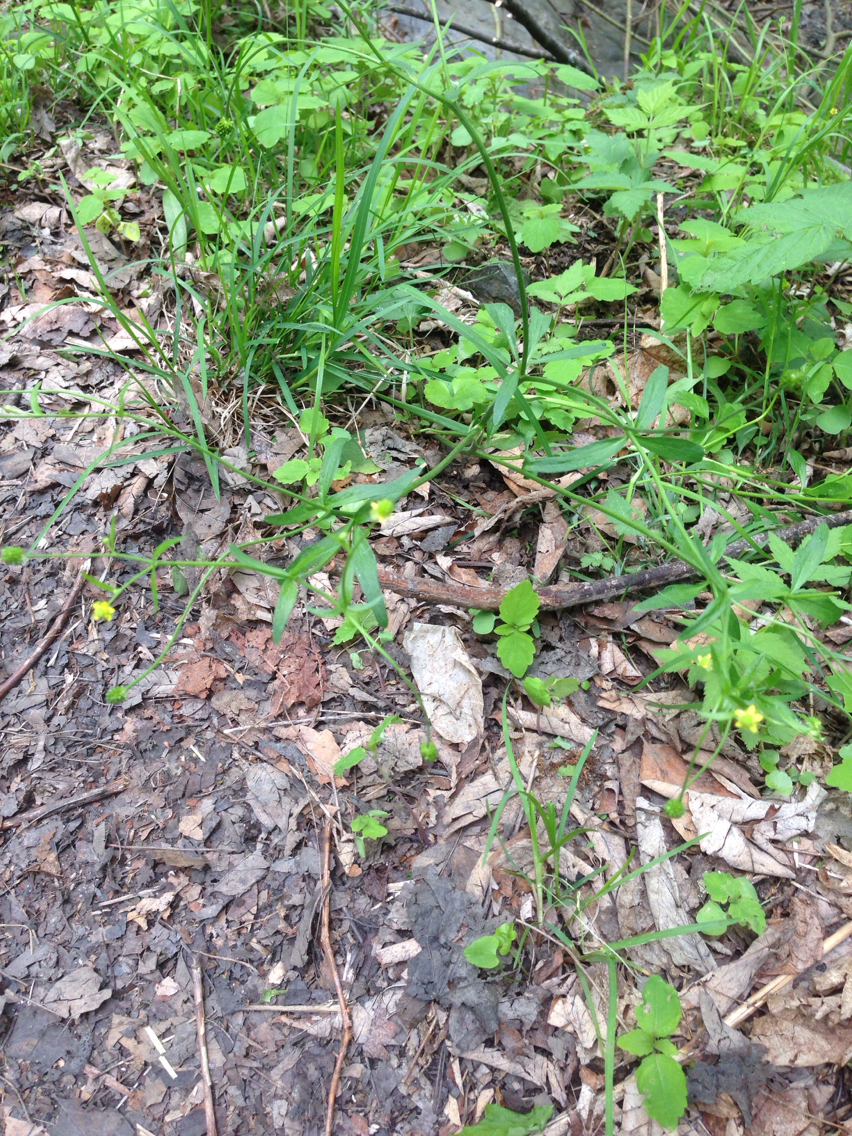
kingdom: Plantae
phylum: Tracheophyta
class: Magnoliopsida
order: Ranunculales
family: Ranunculaceae
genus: Ranunculus
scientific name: Ranunculus abortivus
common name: Early wood buttercup
